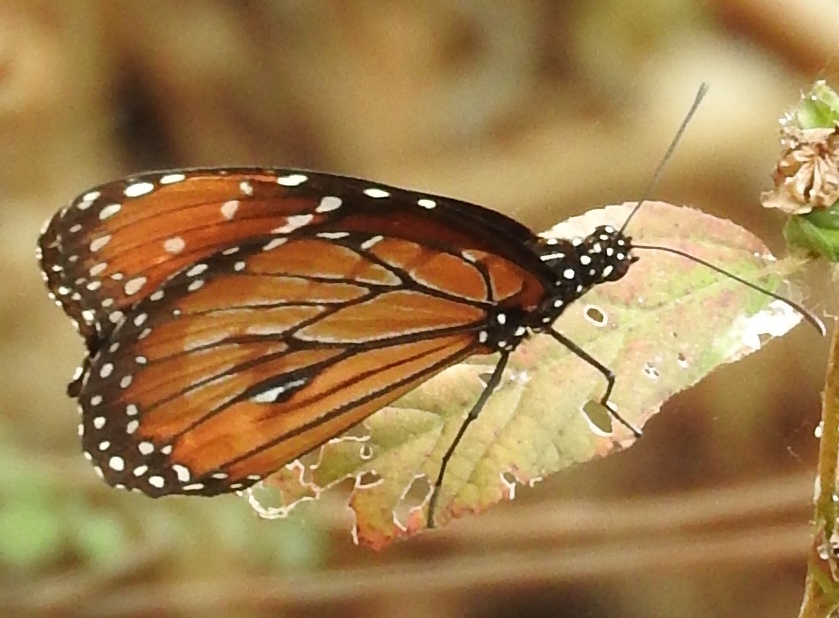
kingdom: Animalia
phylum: Arthropoda
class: Insecta
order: Lepidoptera
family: Nymphalidae
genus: Danaus
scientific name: Danaus eresimus
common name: Soldier
